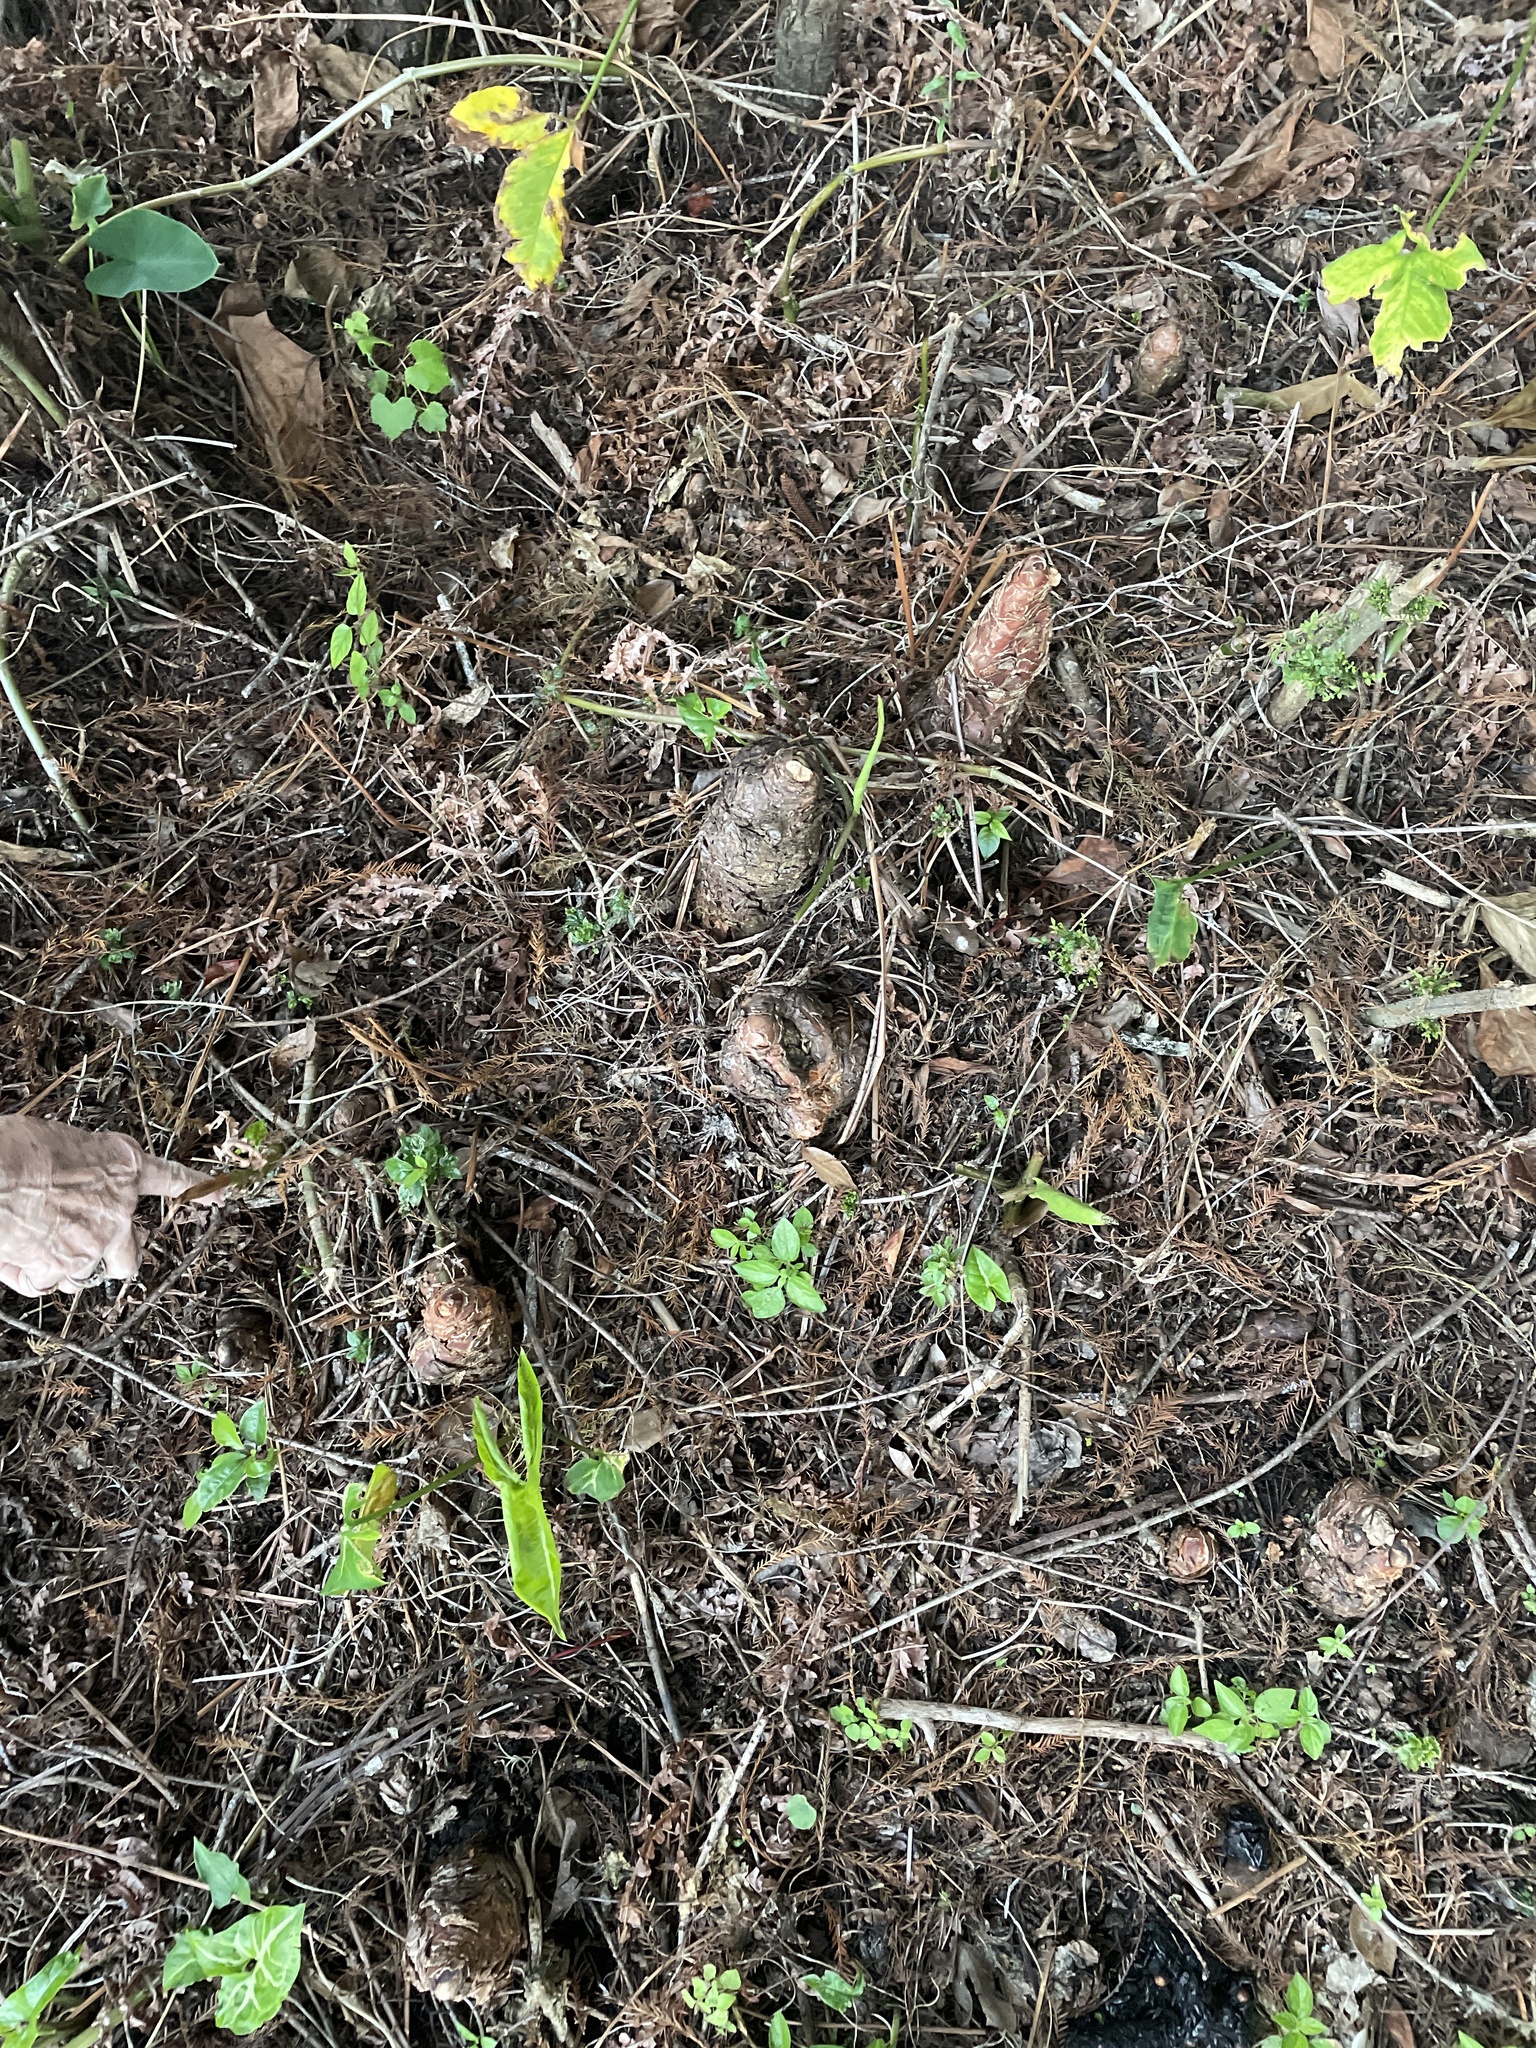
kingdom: Animalia
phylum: Chordata
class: Mammalia
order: Carnivora
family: Procyonidae
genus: Procyon
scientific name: Procyon lotor
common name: Raccoon
